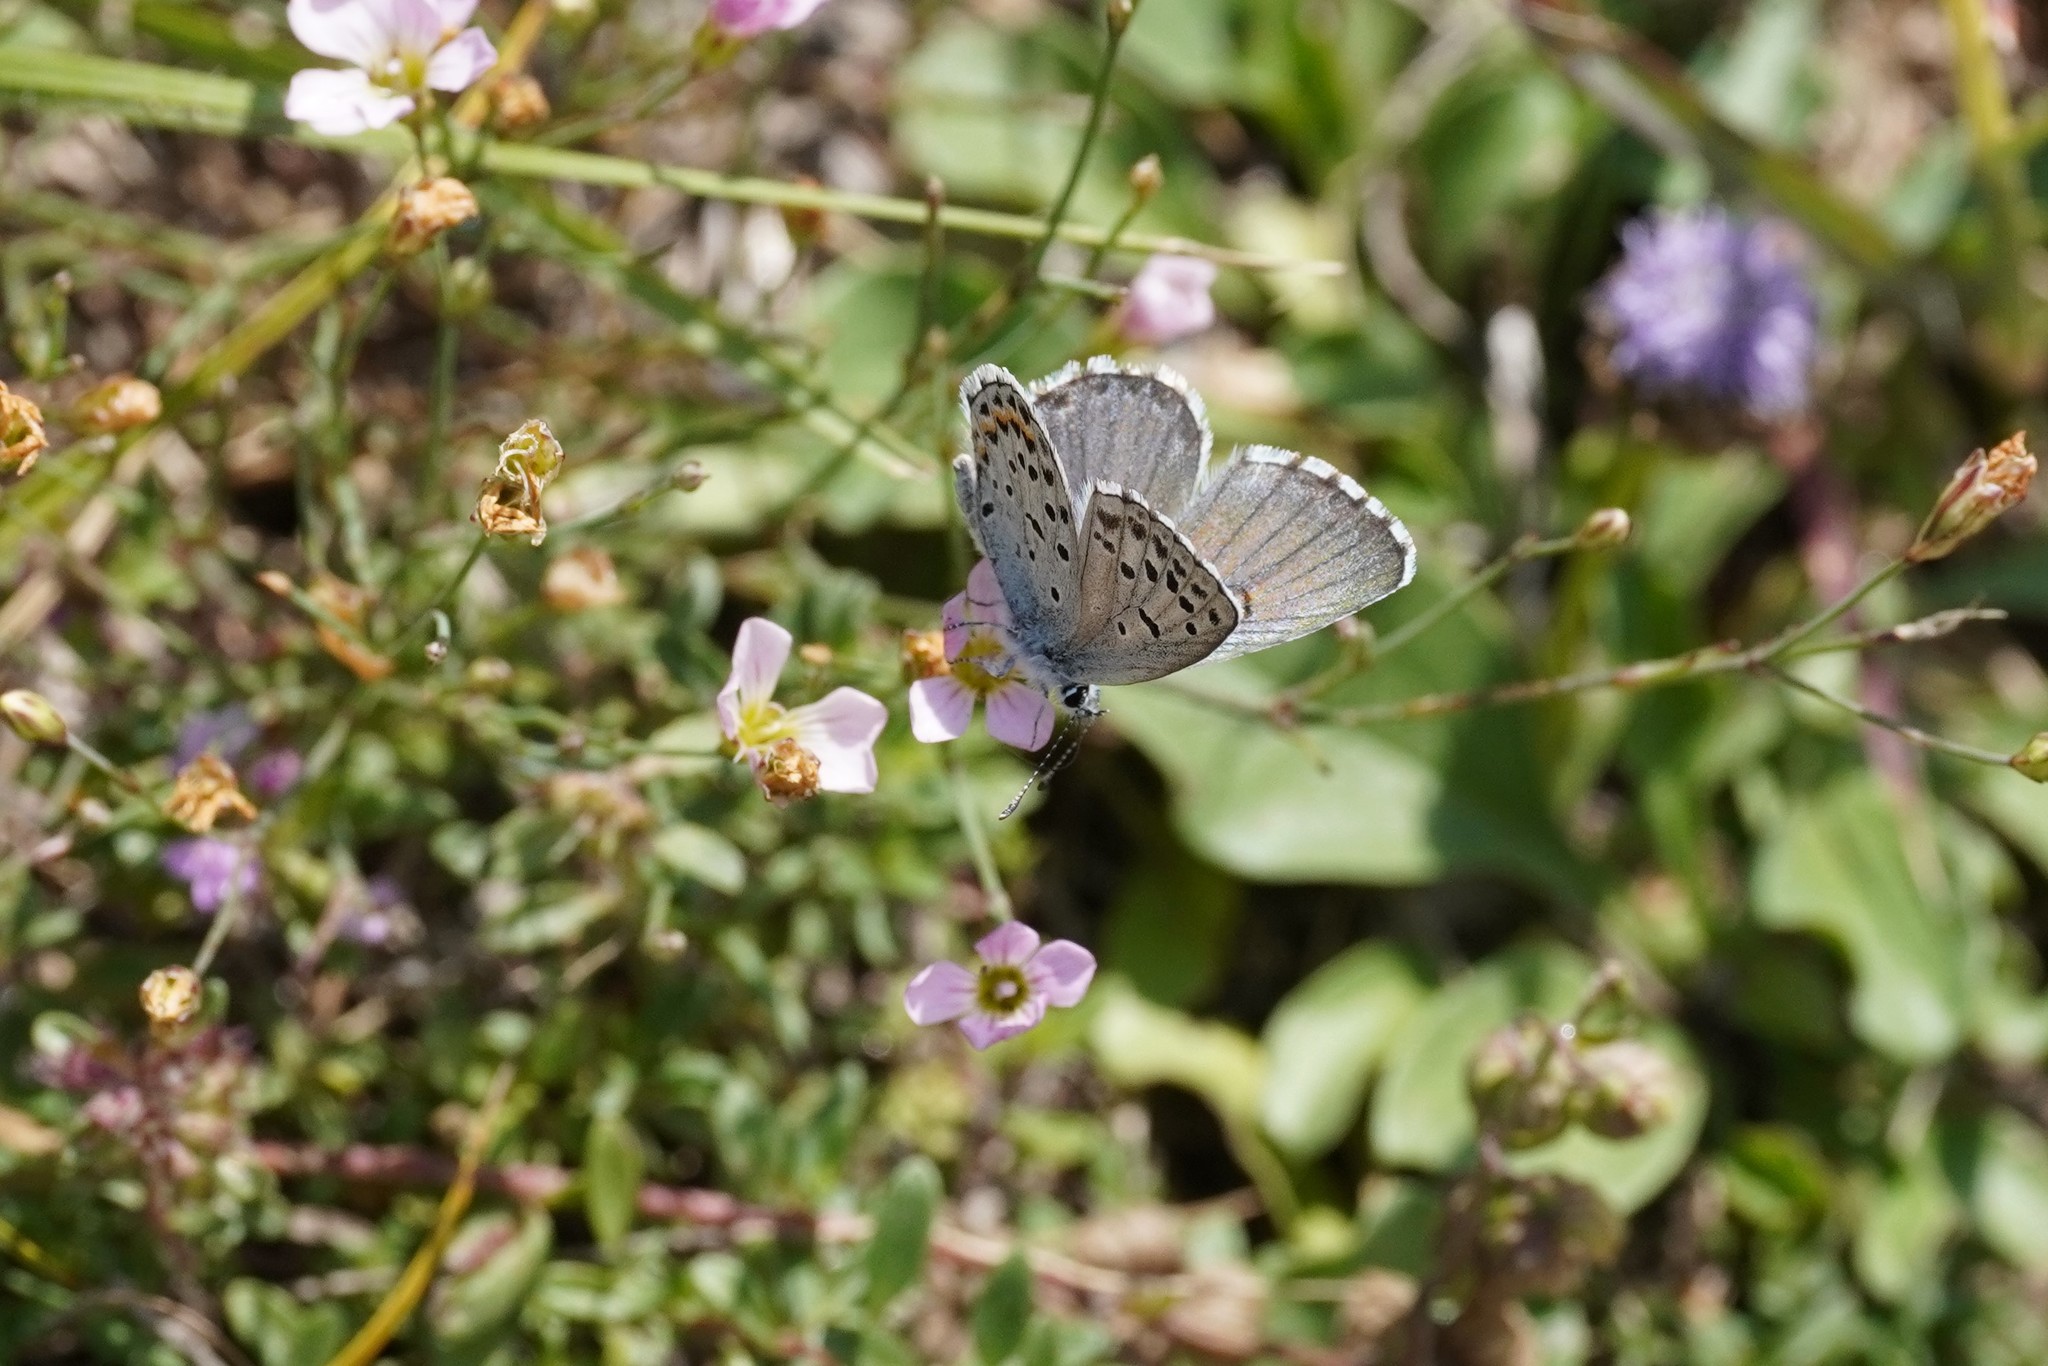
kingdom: Animalia
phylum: Arthropoda
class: Insecta
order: Lepidoptera
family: Lycaenidae
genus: Pseudophilotes
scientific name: Pseudophilotes baton
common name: Baton blue
